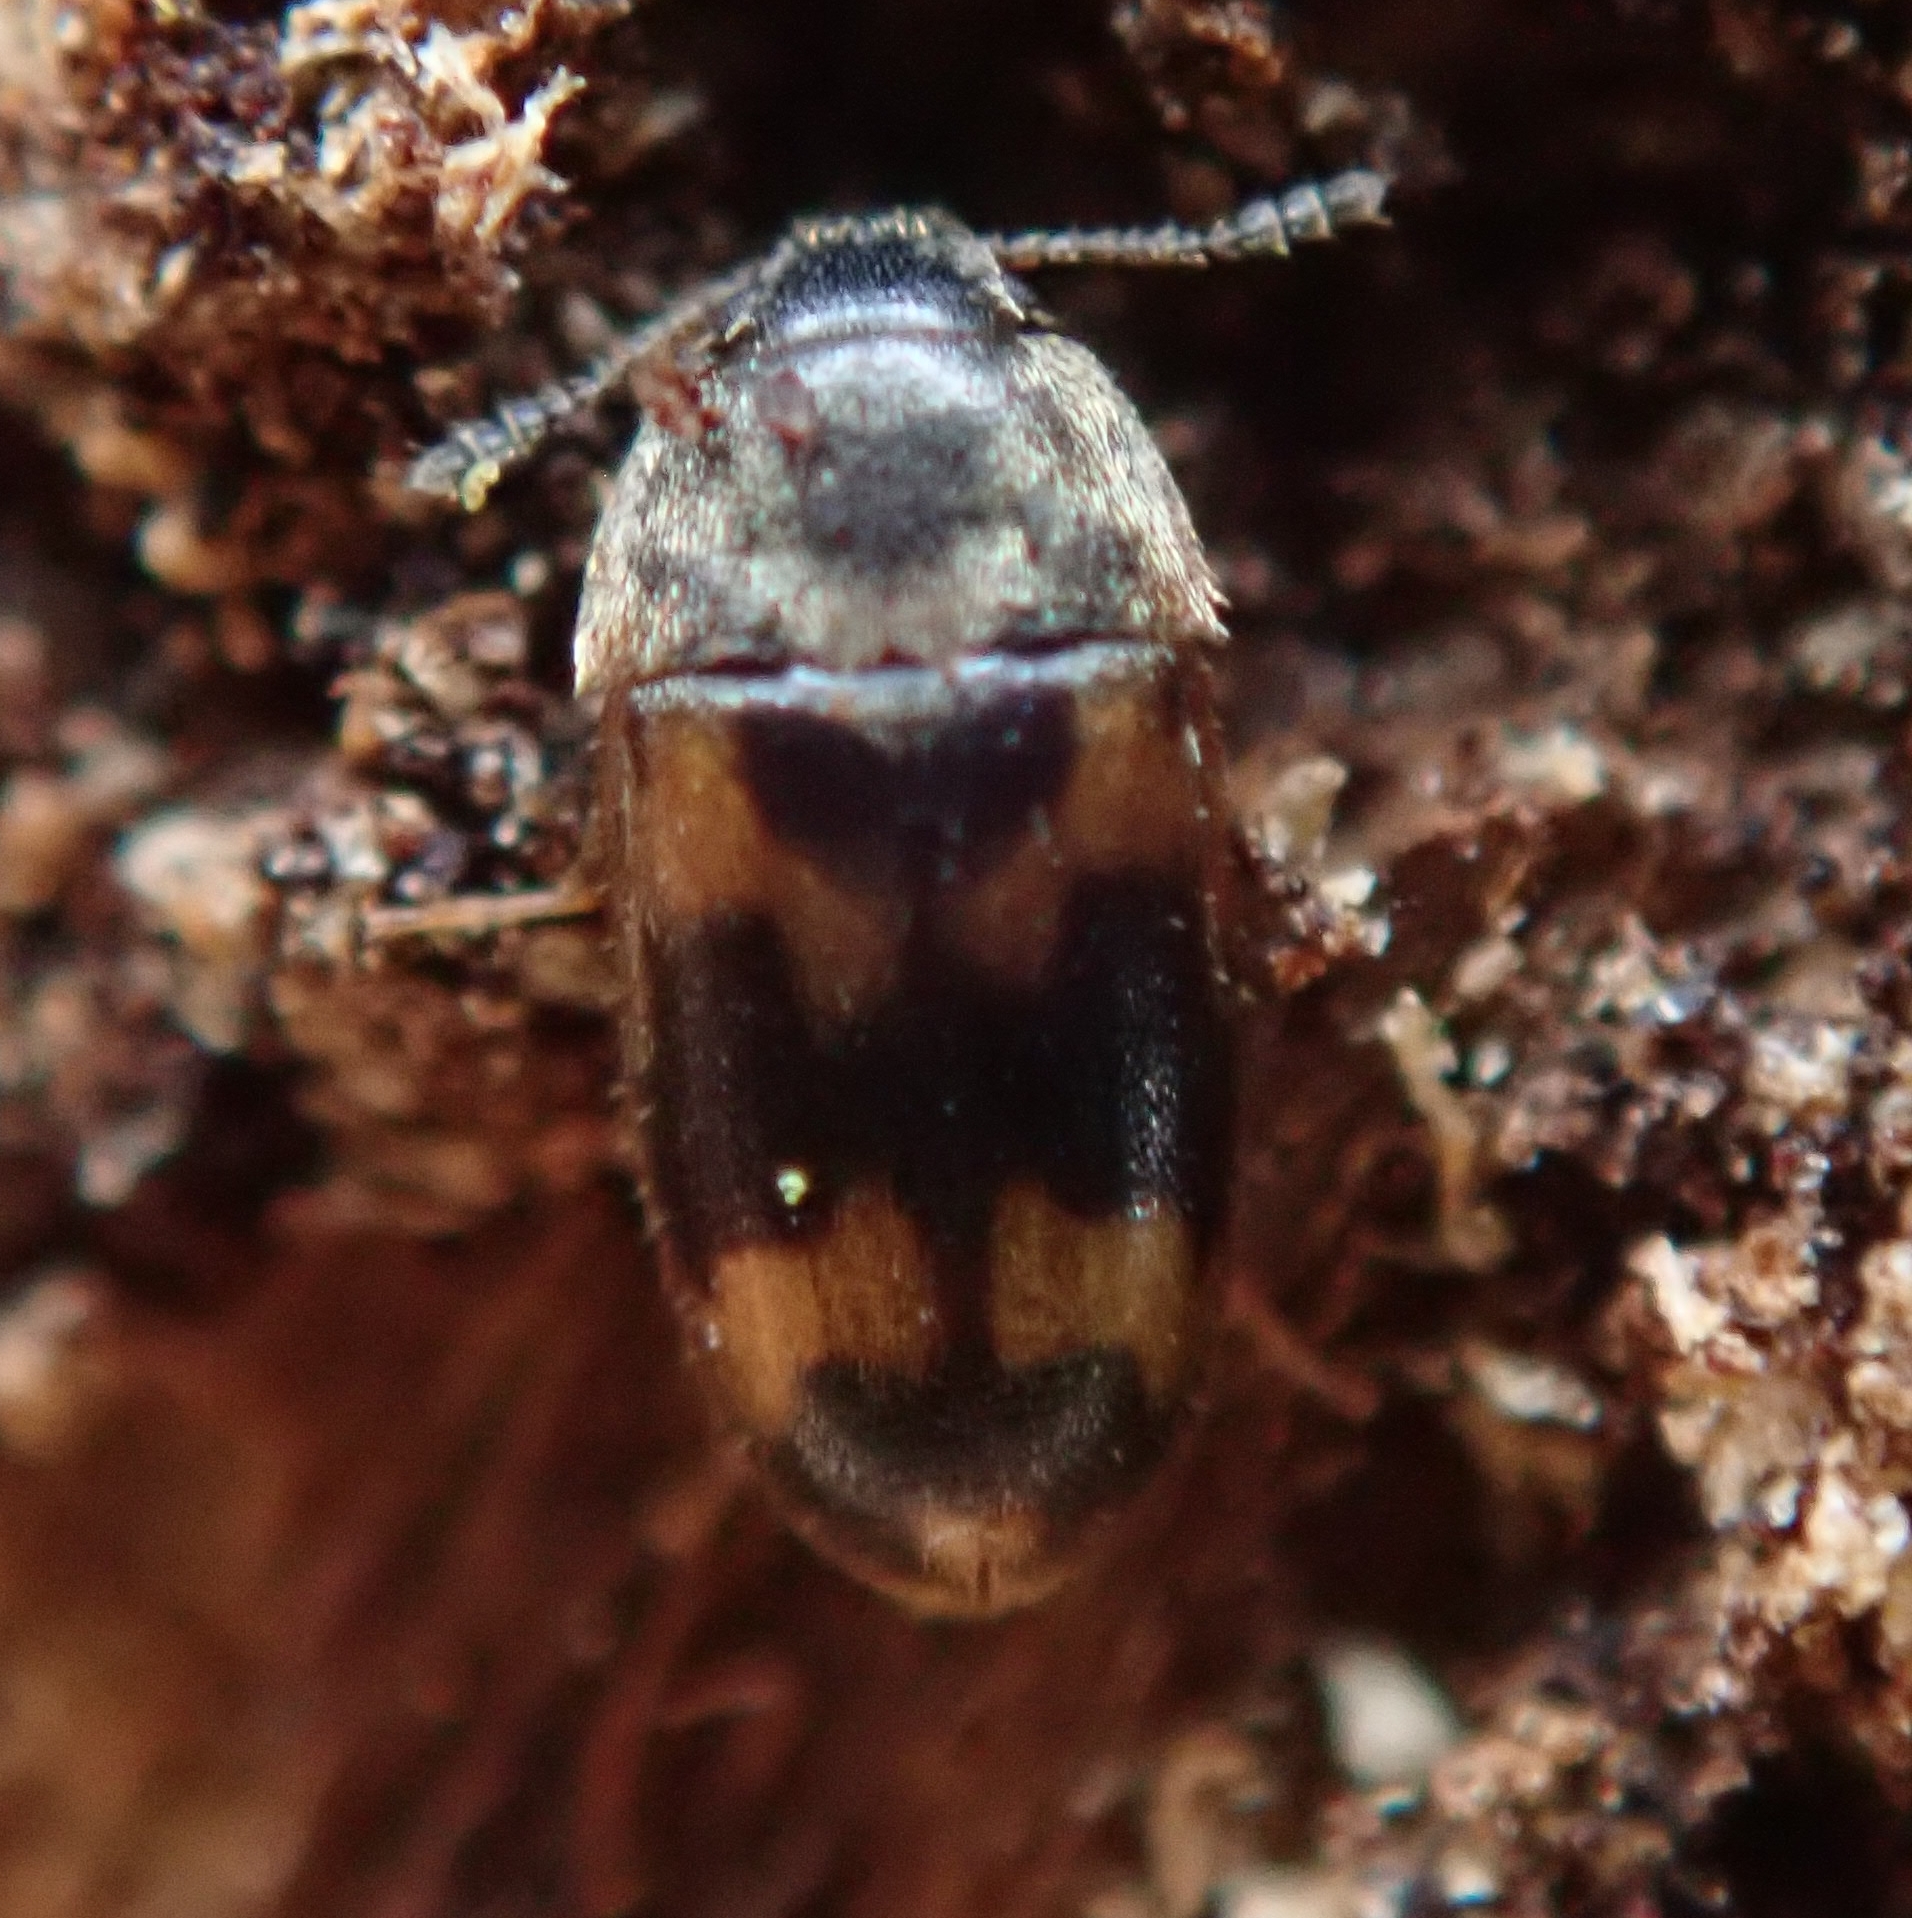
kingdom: Animalia
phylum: Arthropoda
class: Insecta
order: Coleoptera
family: Mycetophagidae
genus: Litargus
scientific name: Litargus connexus
